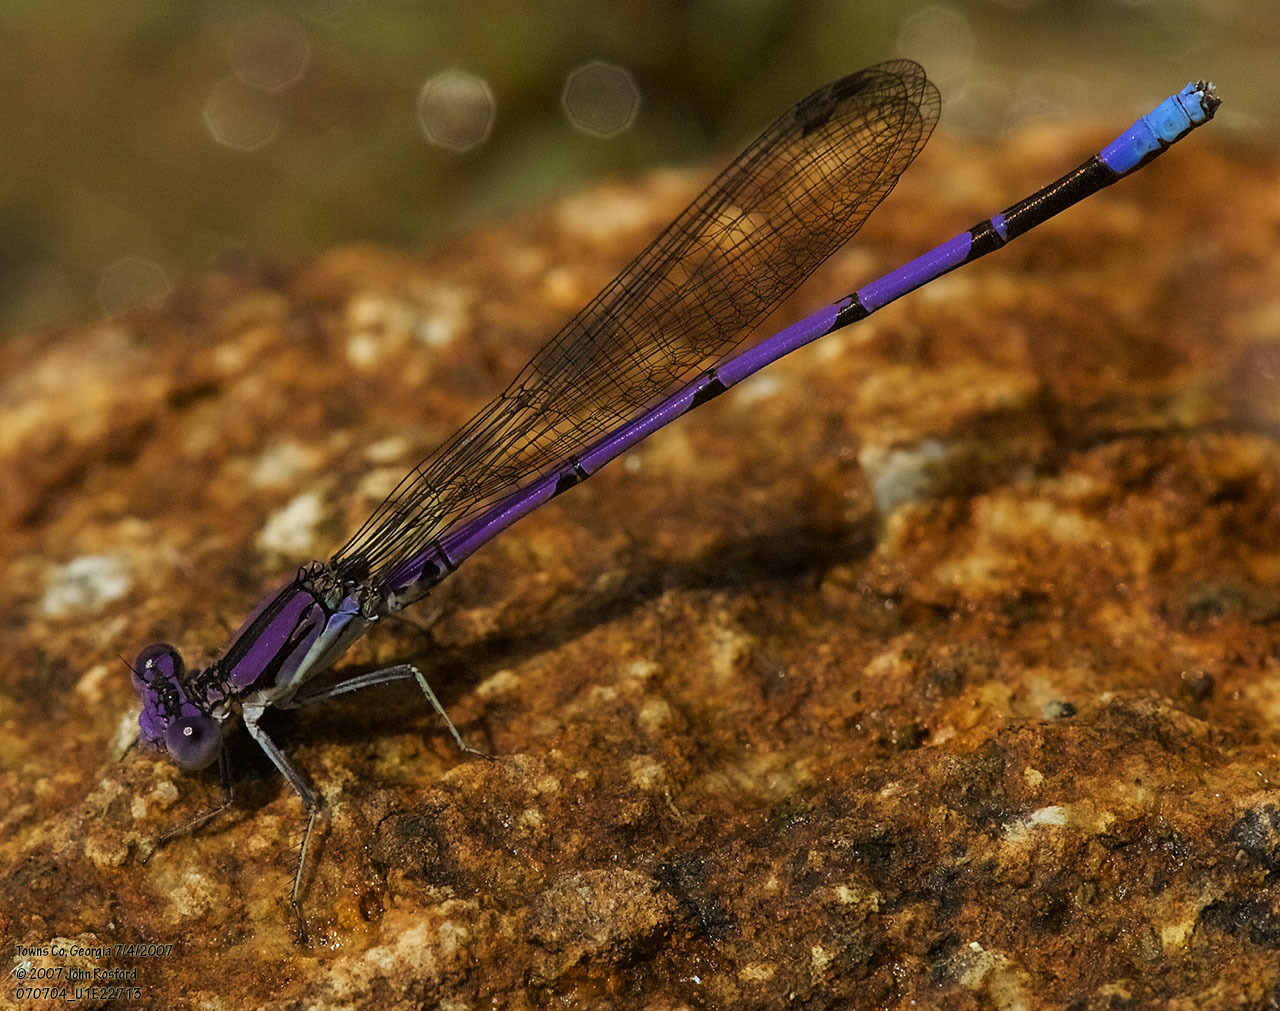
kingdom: Animalia
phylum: Arthropoda
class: Insecta
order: Odonata
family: Coenagrionidae
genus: Argia
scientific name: Argia fumipennis
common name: Variable dancer
